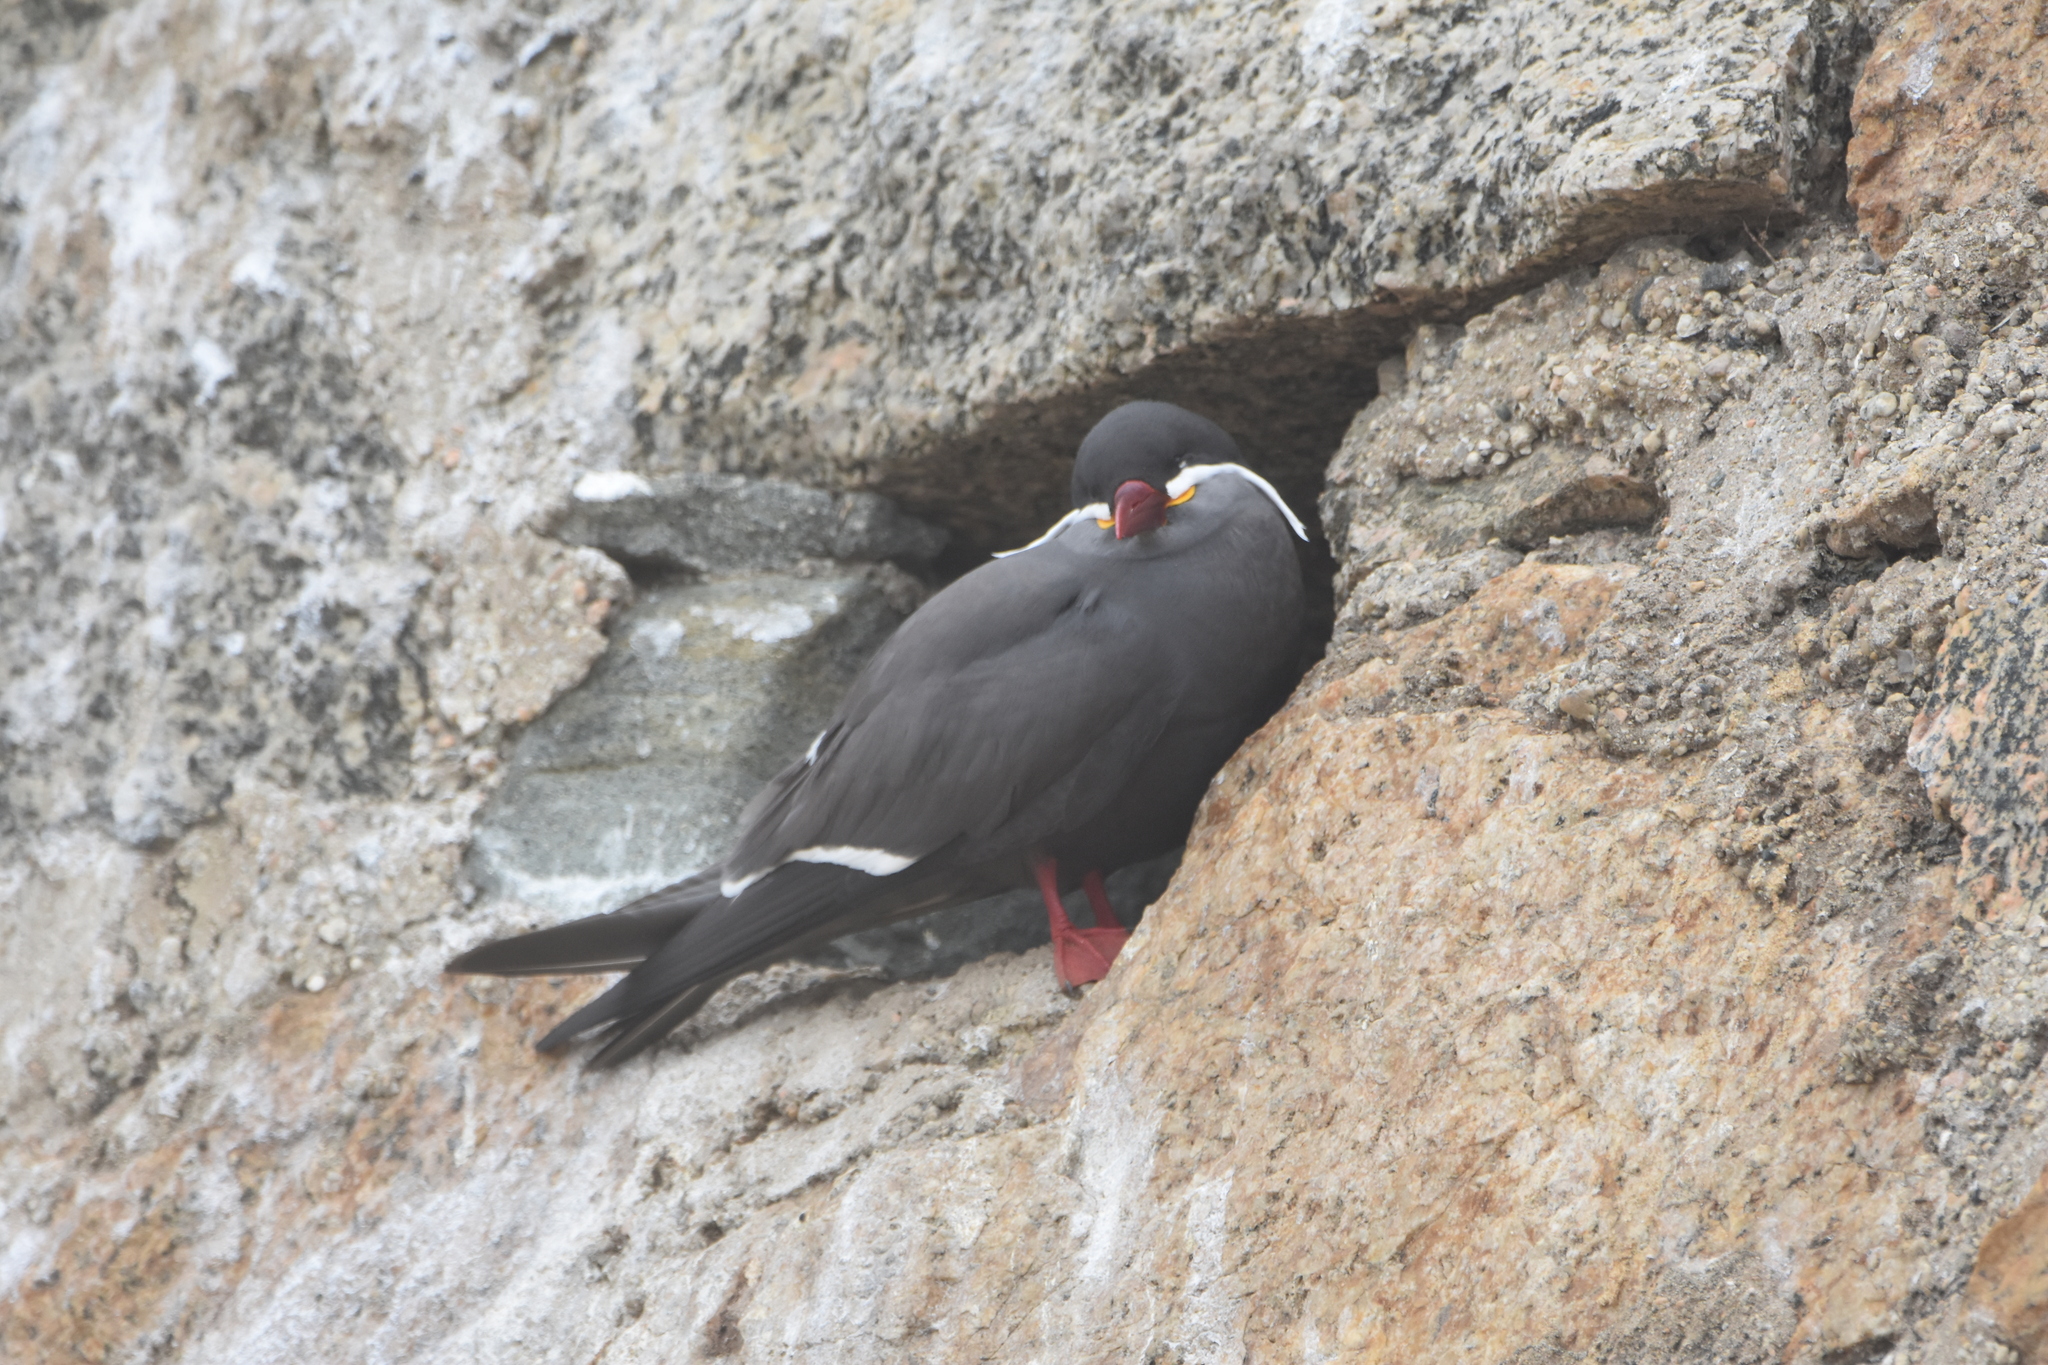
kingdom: Animalia
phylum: Chordata
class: Aves
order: Charadriiformes
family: Laridae
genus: Larosterna
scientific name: Larosterna inca
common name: Inca tern
